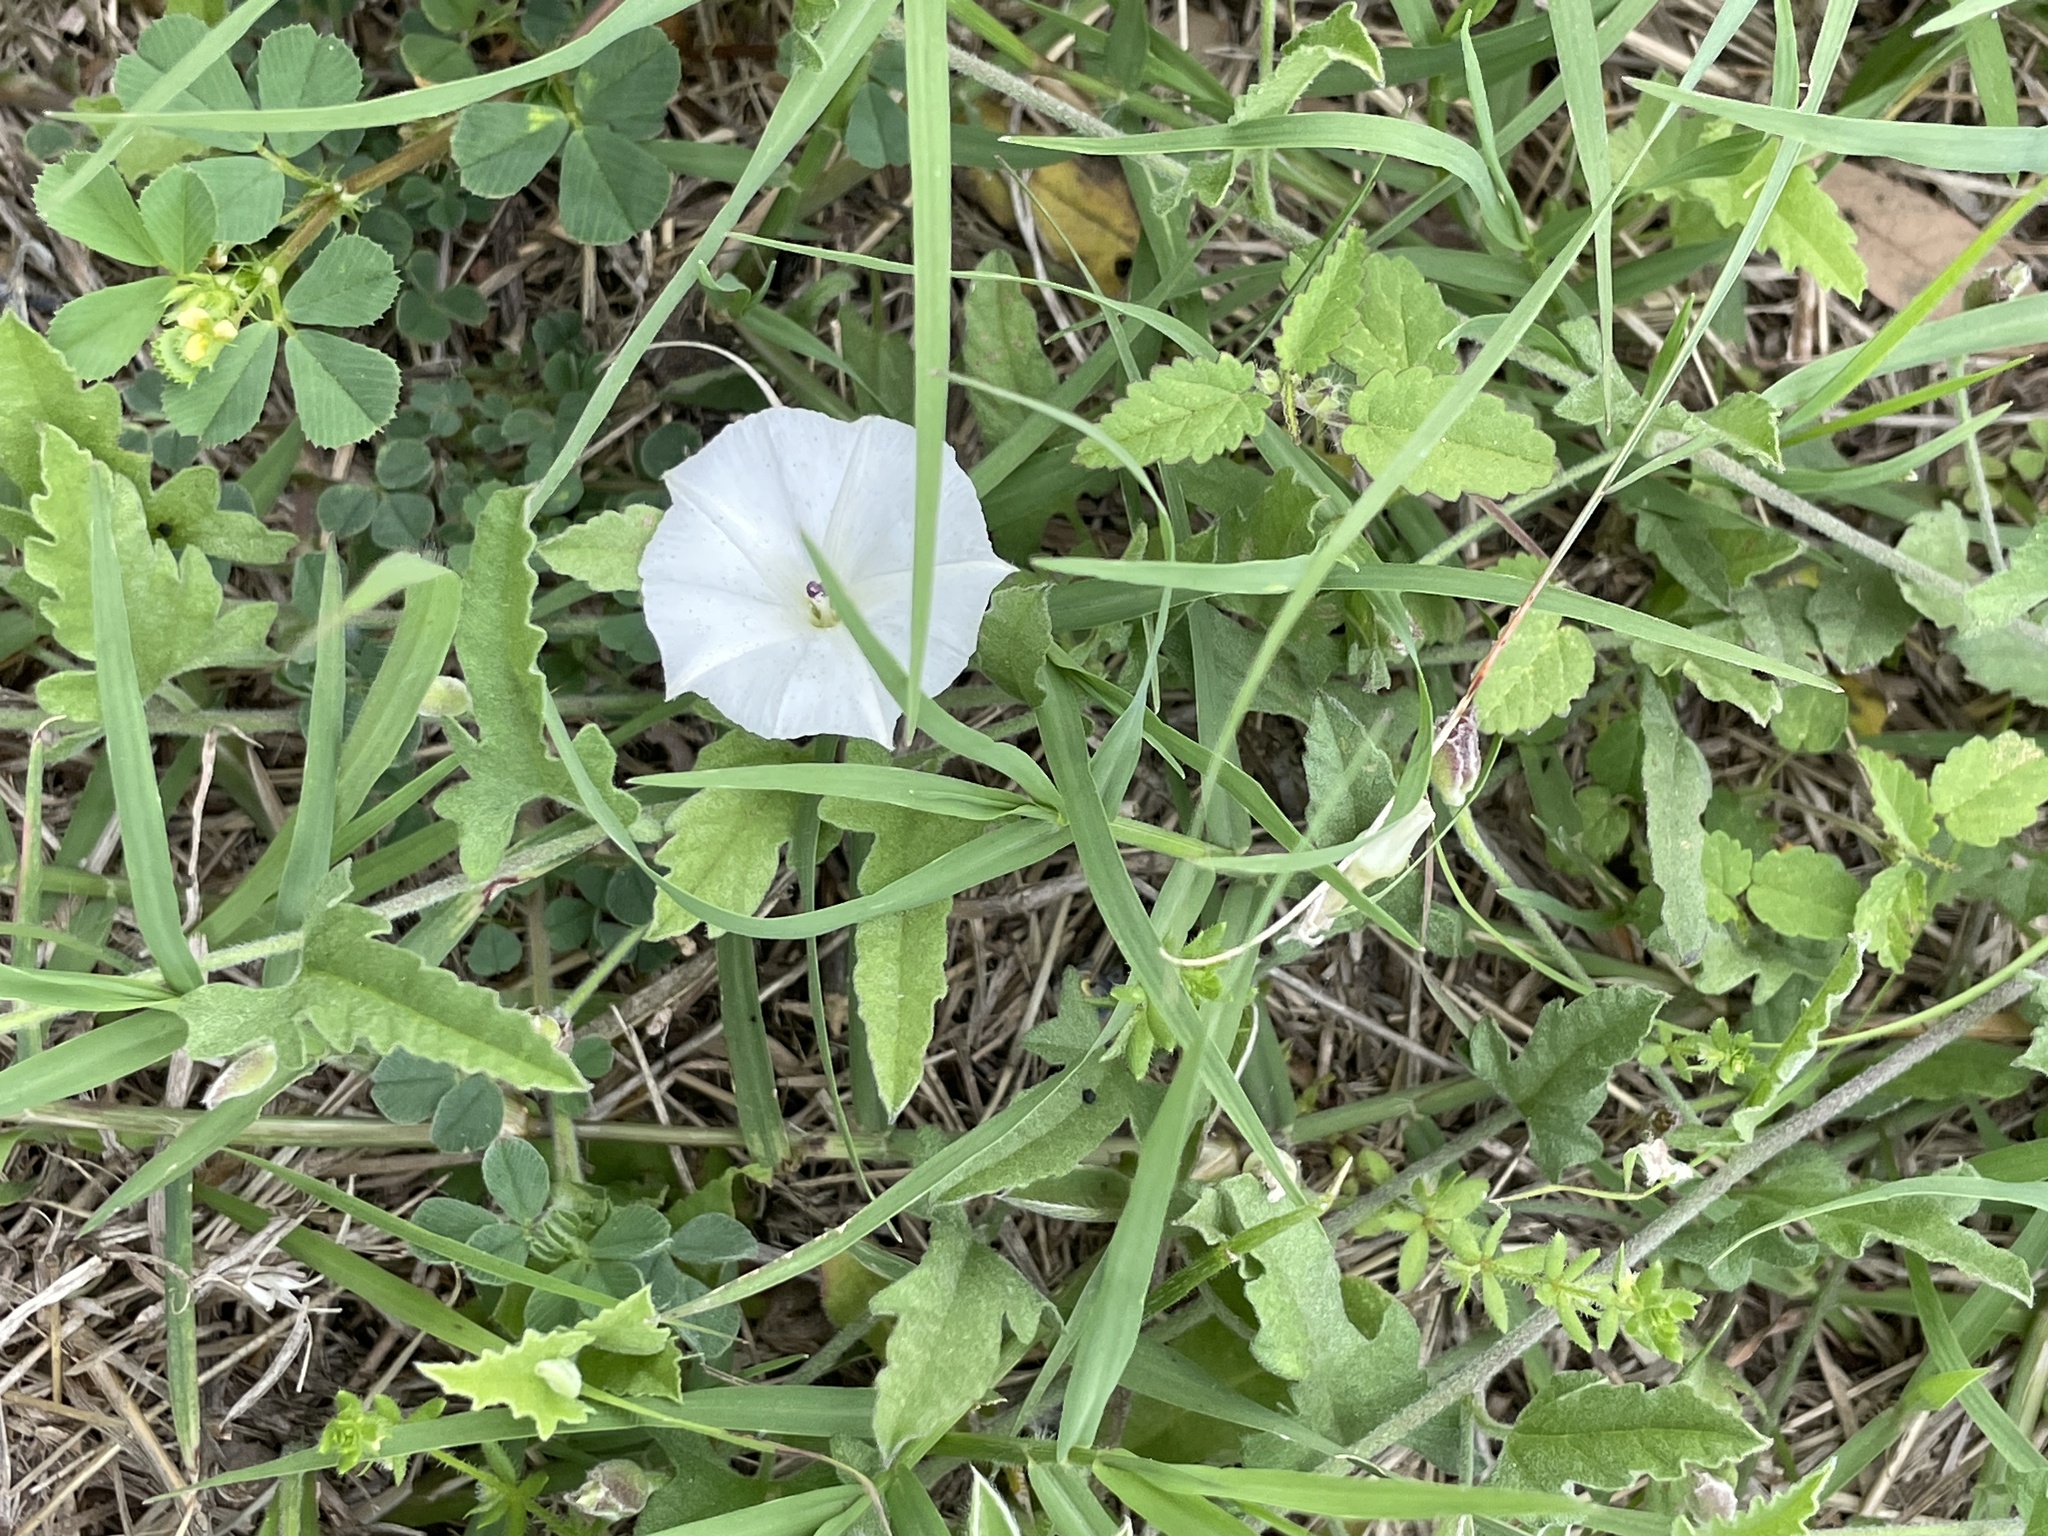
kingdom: Plantae
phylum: Tracheophyta
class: Magnoliopsida
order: Solanales
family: Convolvulaceae
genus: Convolvulus
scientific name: Convolvulus equitans
